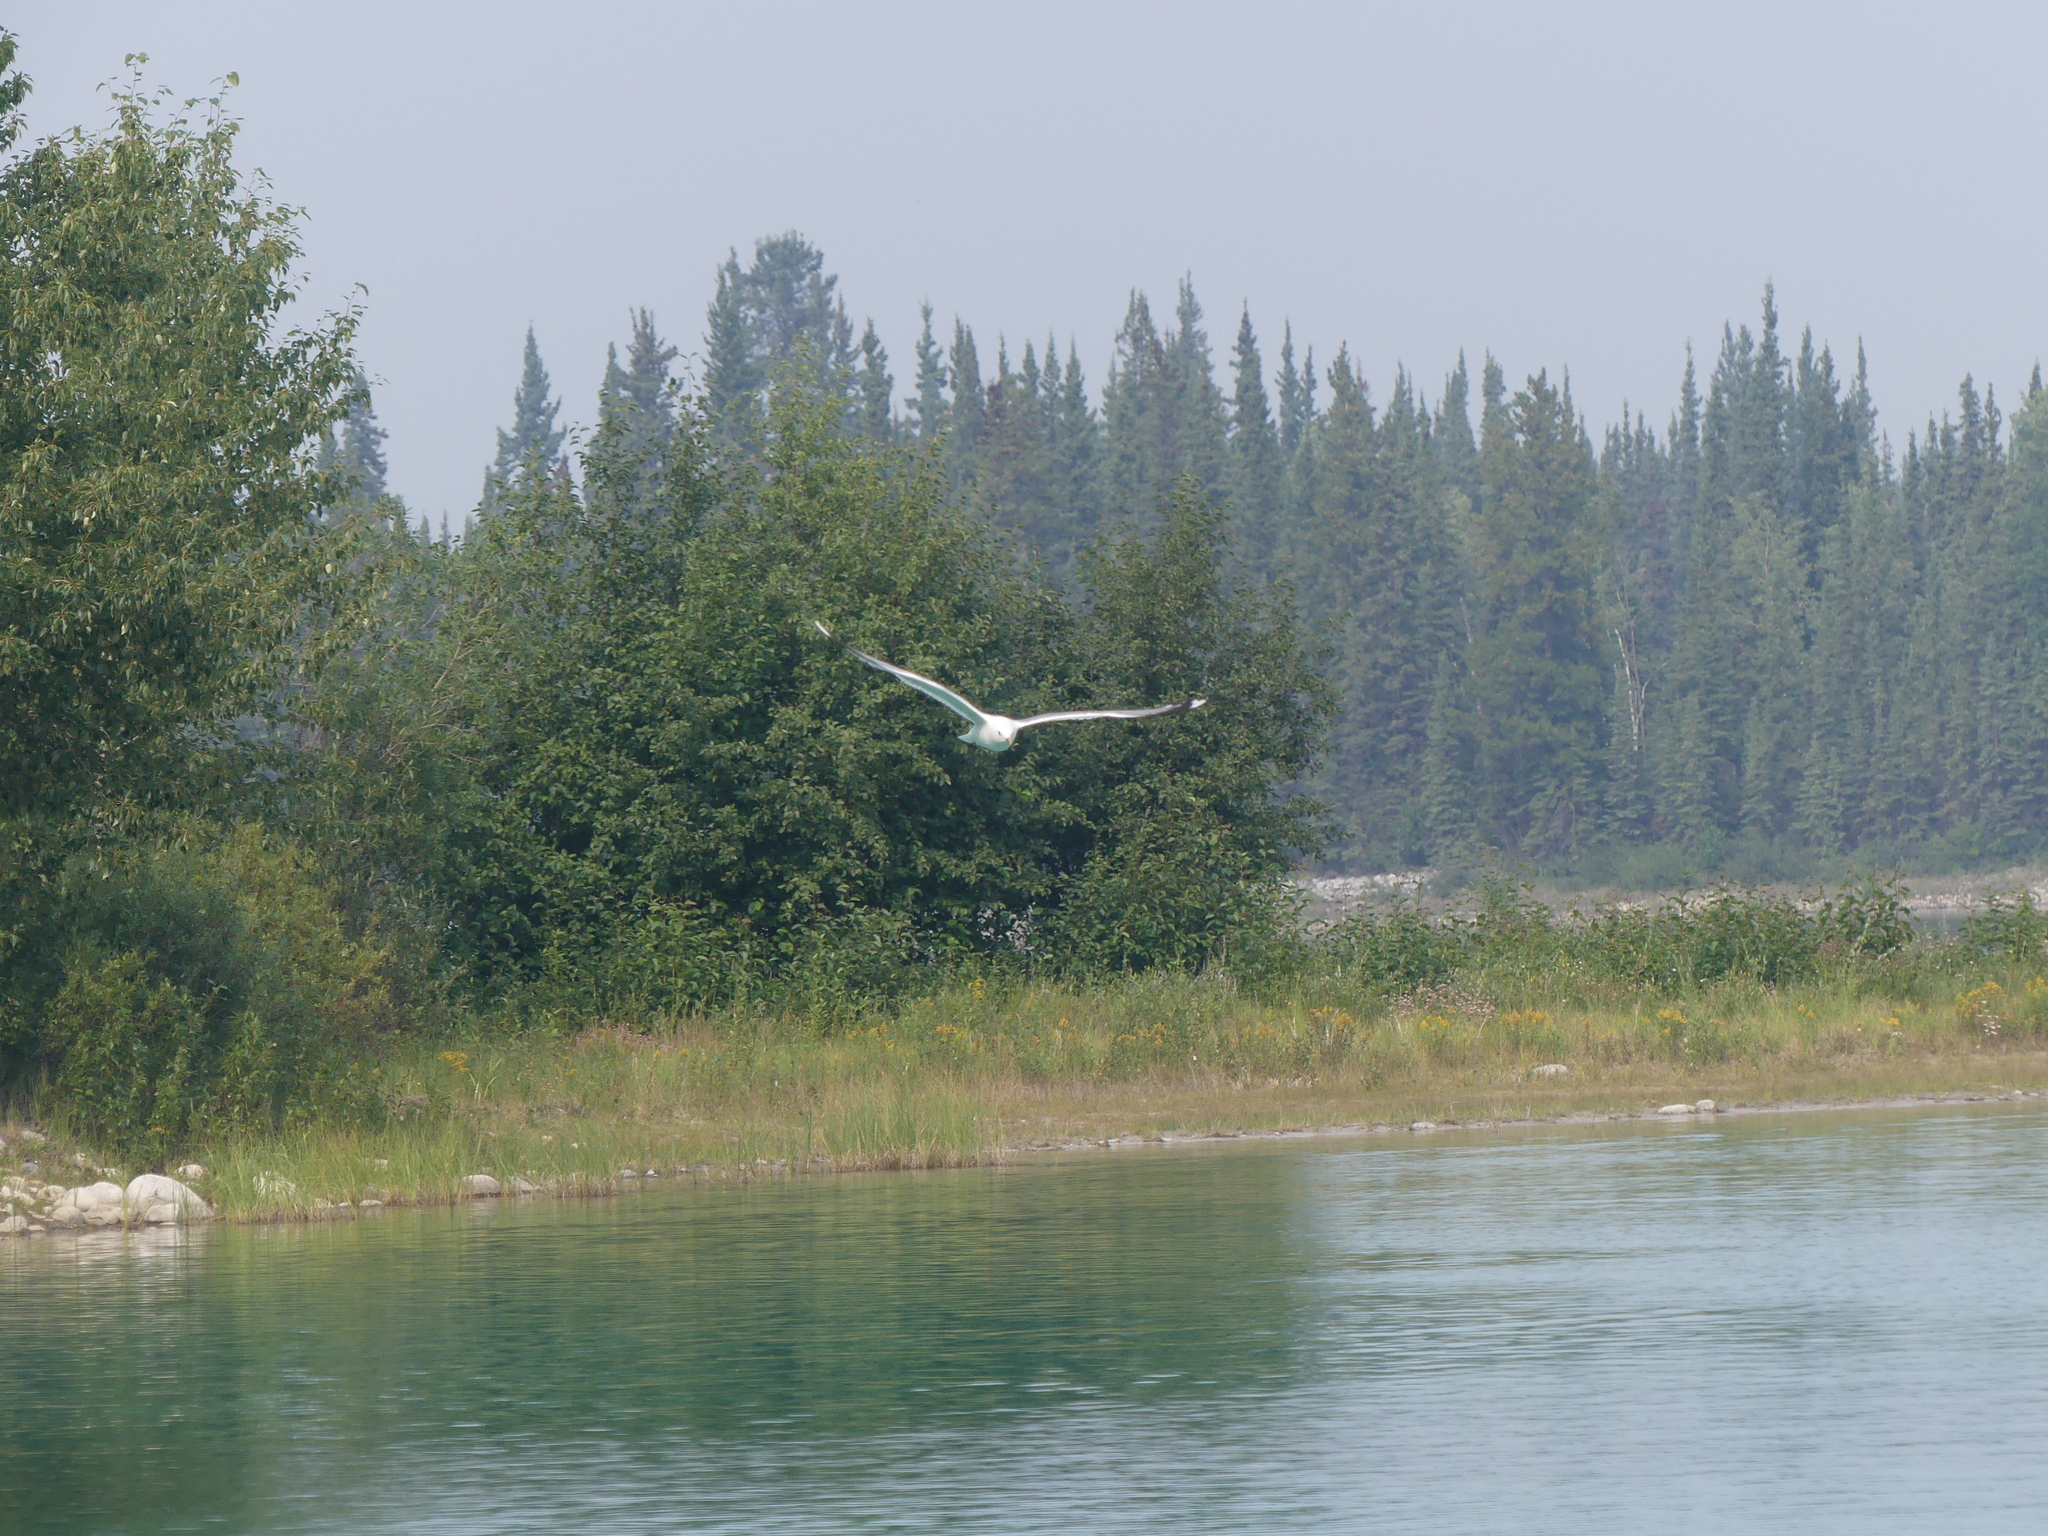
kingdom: Animalia
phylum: Chordata
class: Aves
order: Charadriiformes
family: Laridae
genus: Larus
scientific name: Larus brachyrhynchus
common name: Short-billed gull
